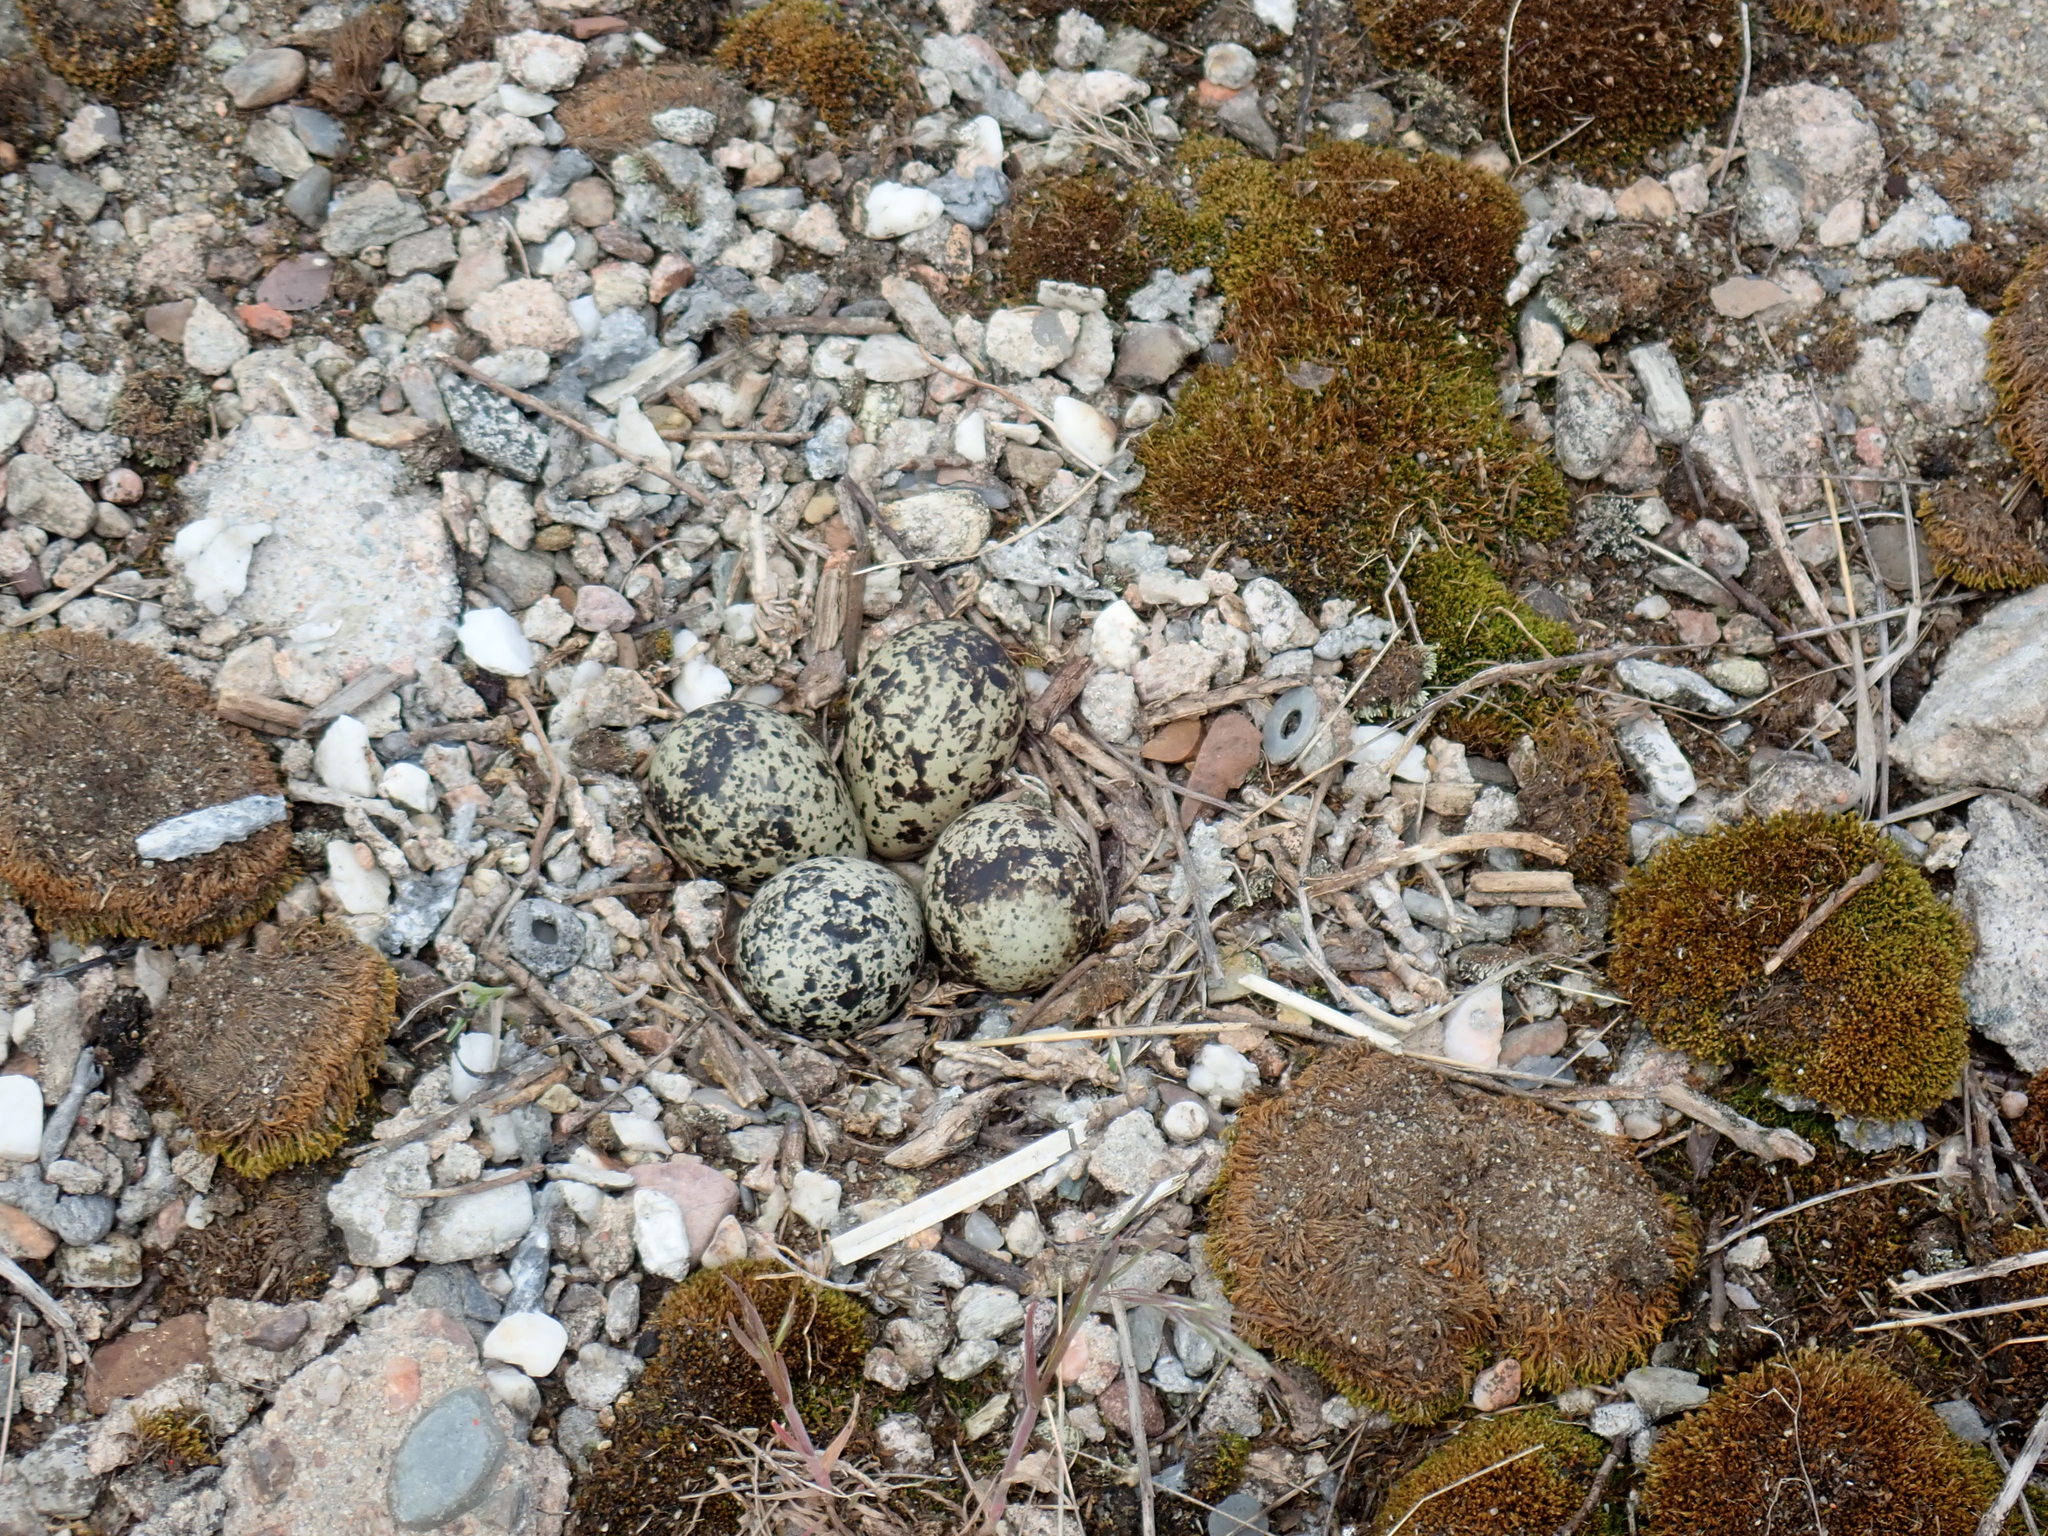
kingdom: Animalia
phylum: Chordata
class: Aves
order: Charadriiformes
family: Charadriidae
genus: Charadrius
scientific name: Charadrius vociferus
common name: Killdeer
